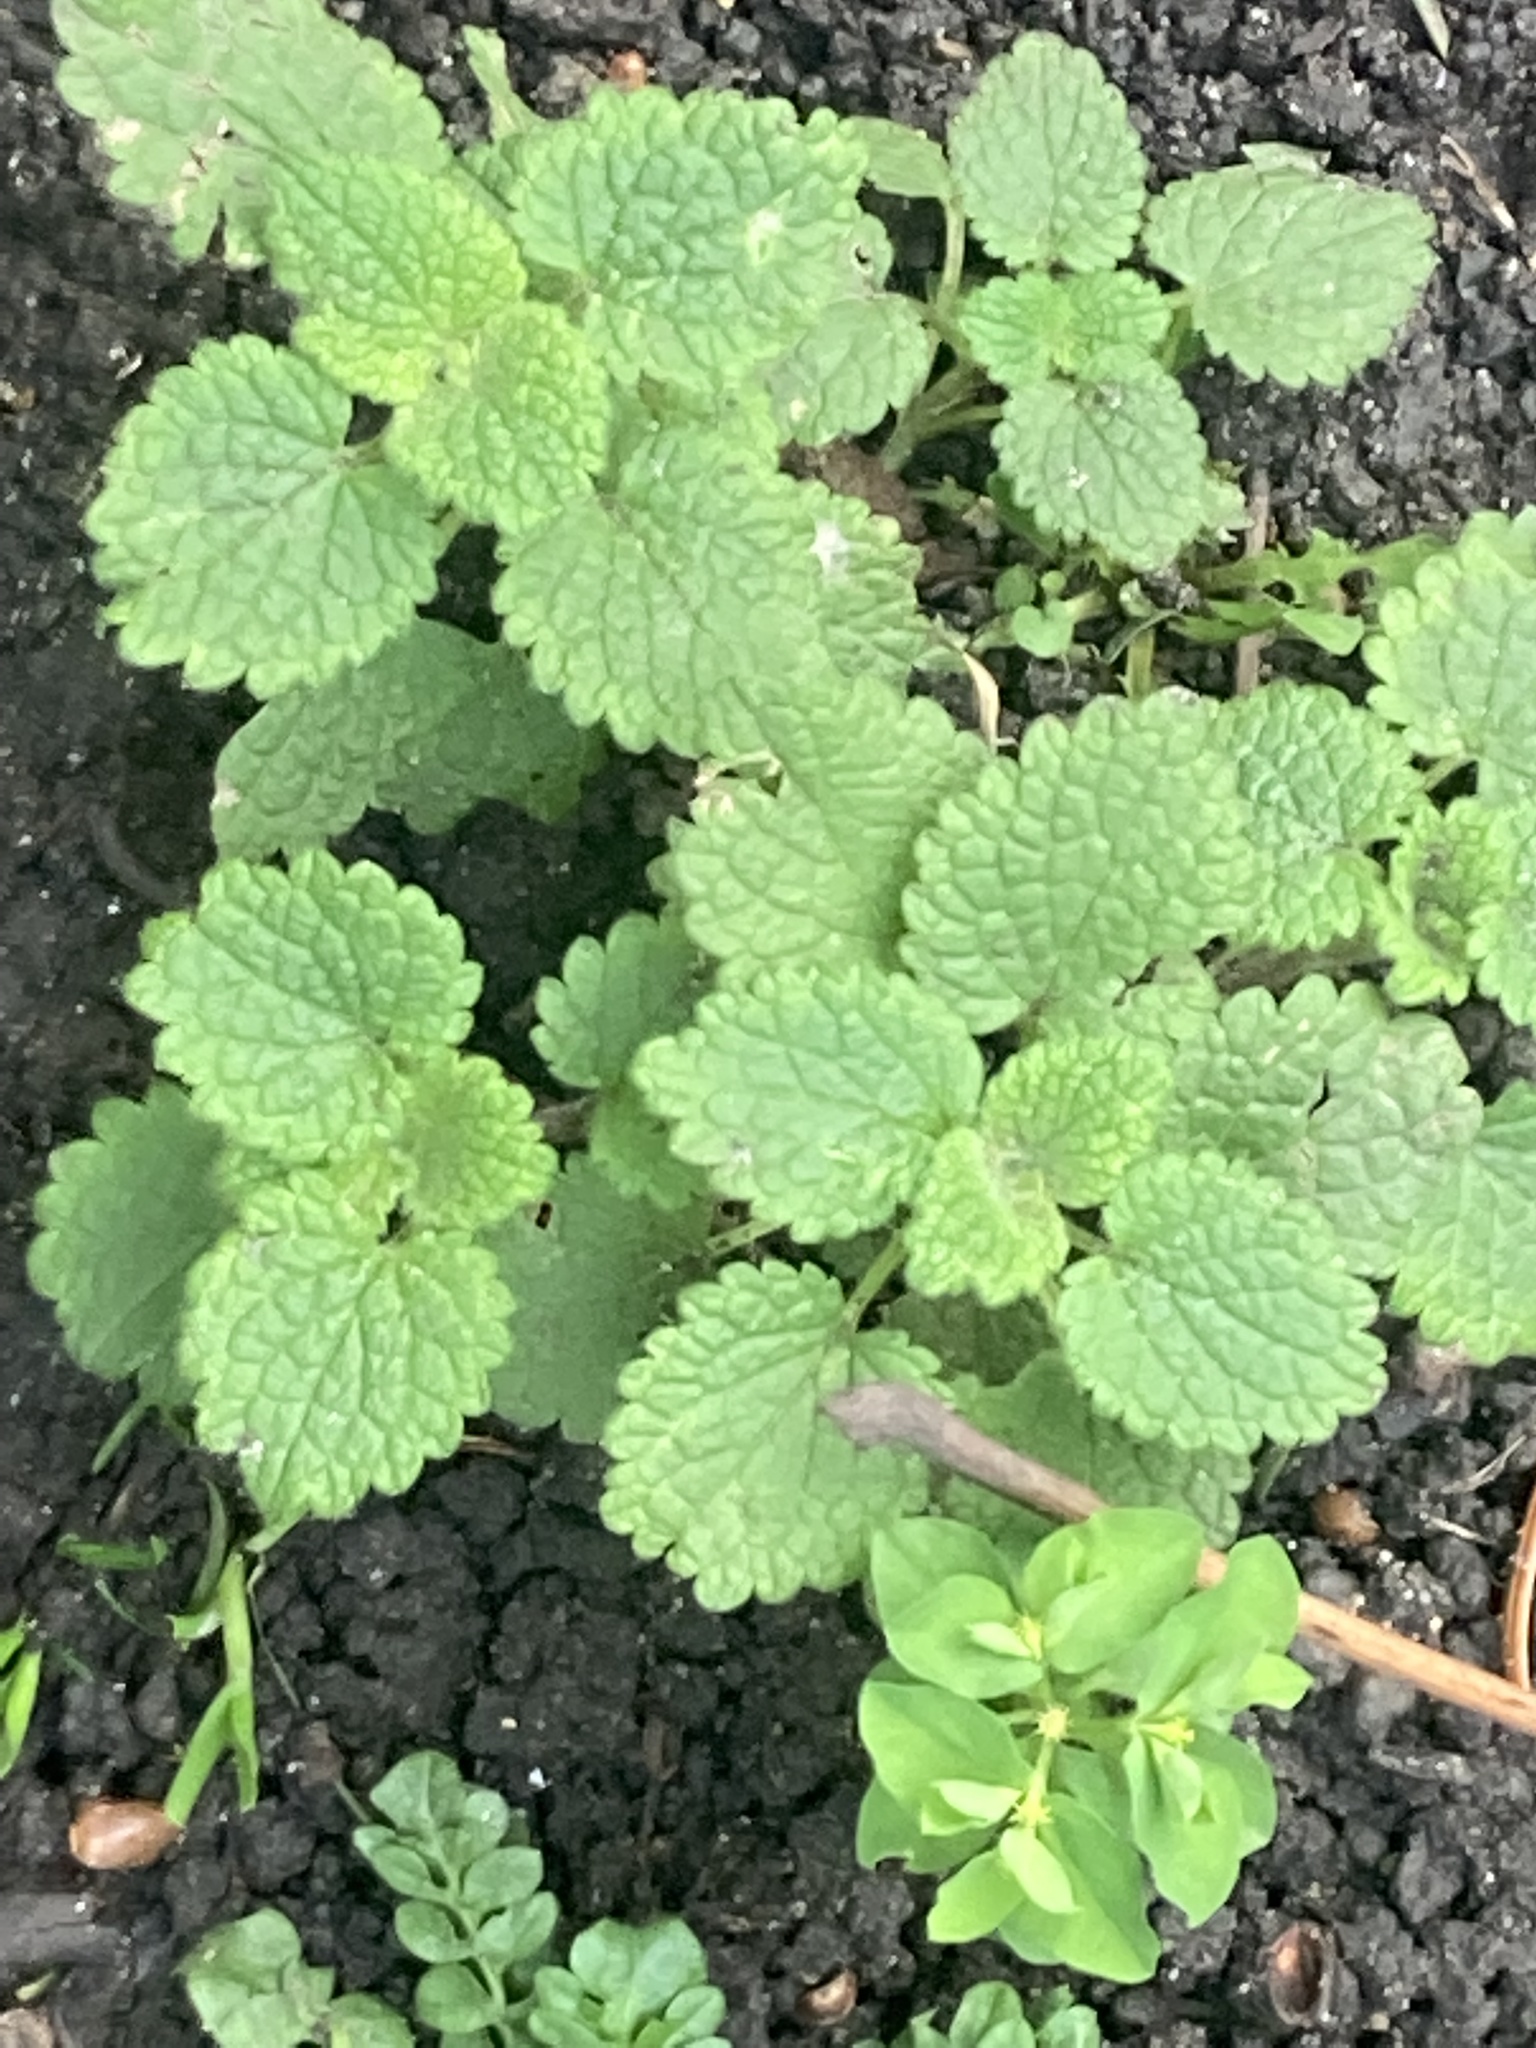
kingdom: Plantae
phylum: Tracheophyta
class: Magnoliopsida
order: Lamiales
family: Lamiaceae
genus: Melissa
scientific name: Melissa officinalis
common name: Balm
